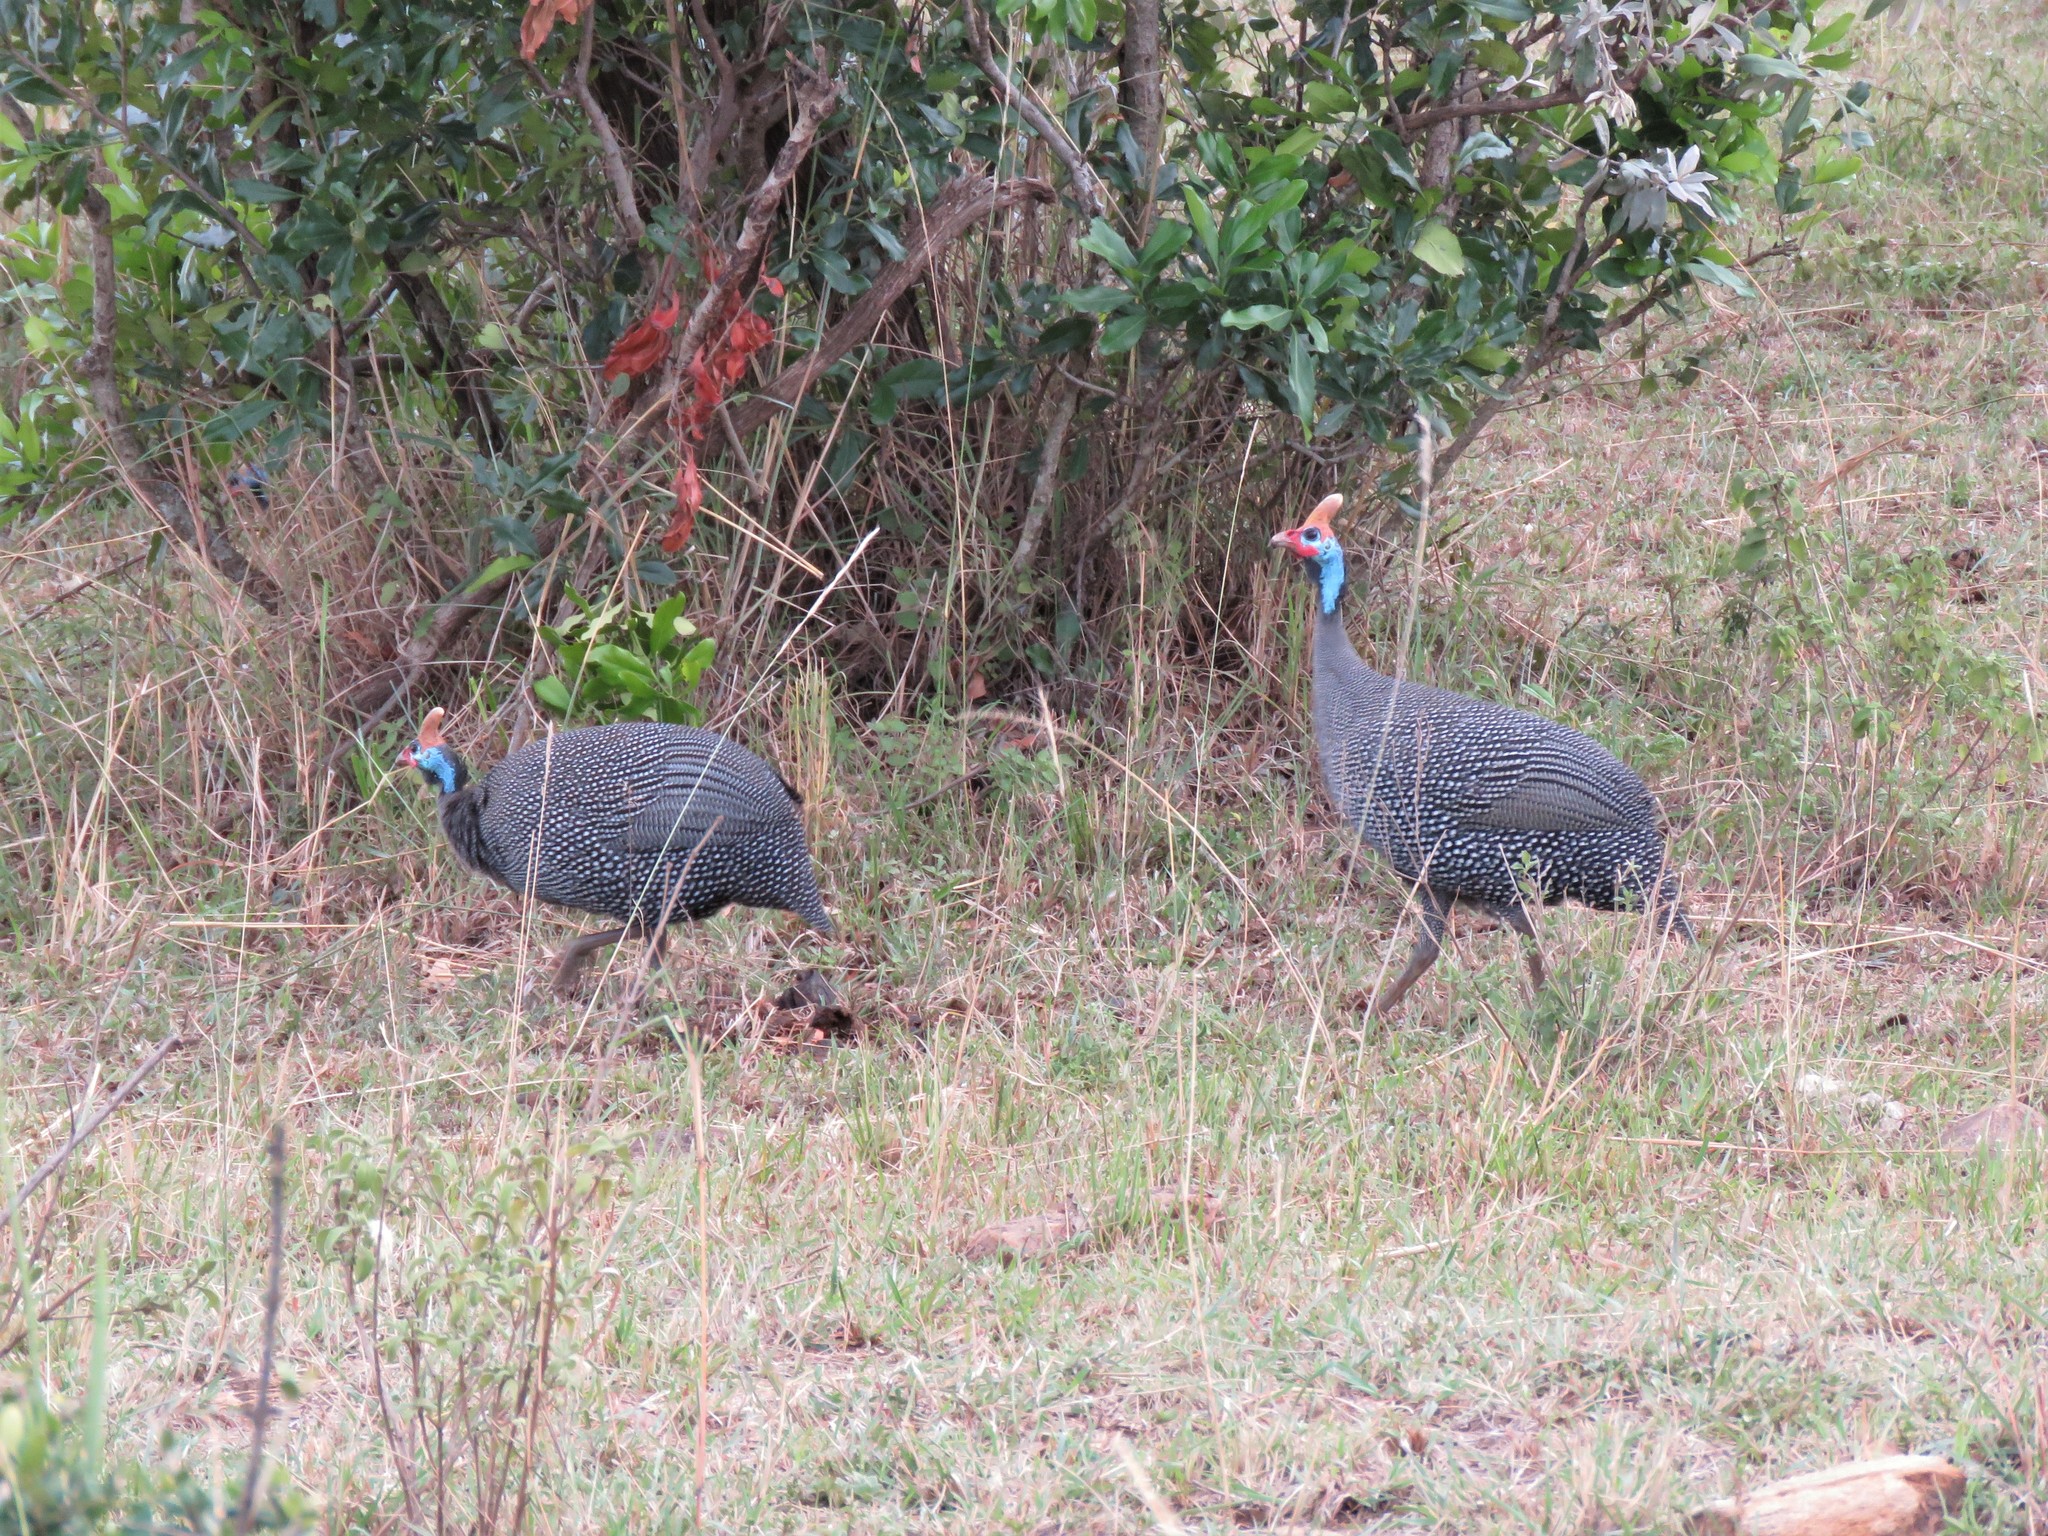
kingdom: Animalia
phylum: Chordata
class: Aves
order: Galliformes
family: Numididae
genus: Numida
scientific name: Numida meleagris
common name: Helmeted guineafowl
